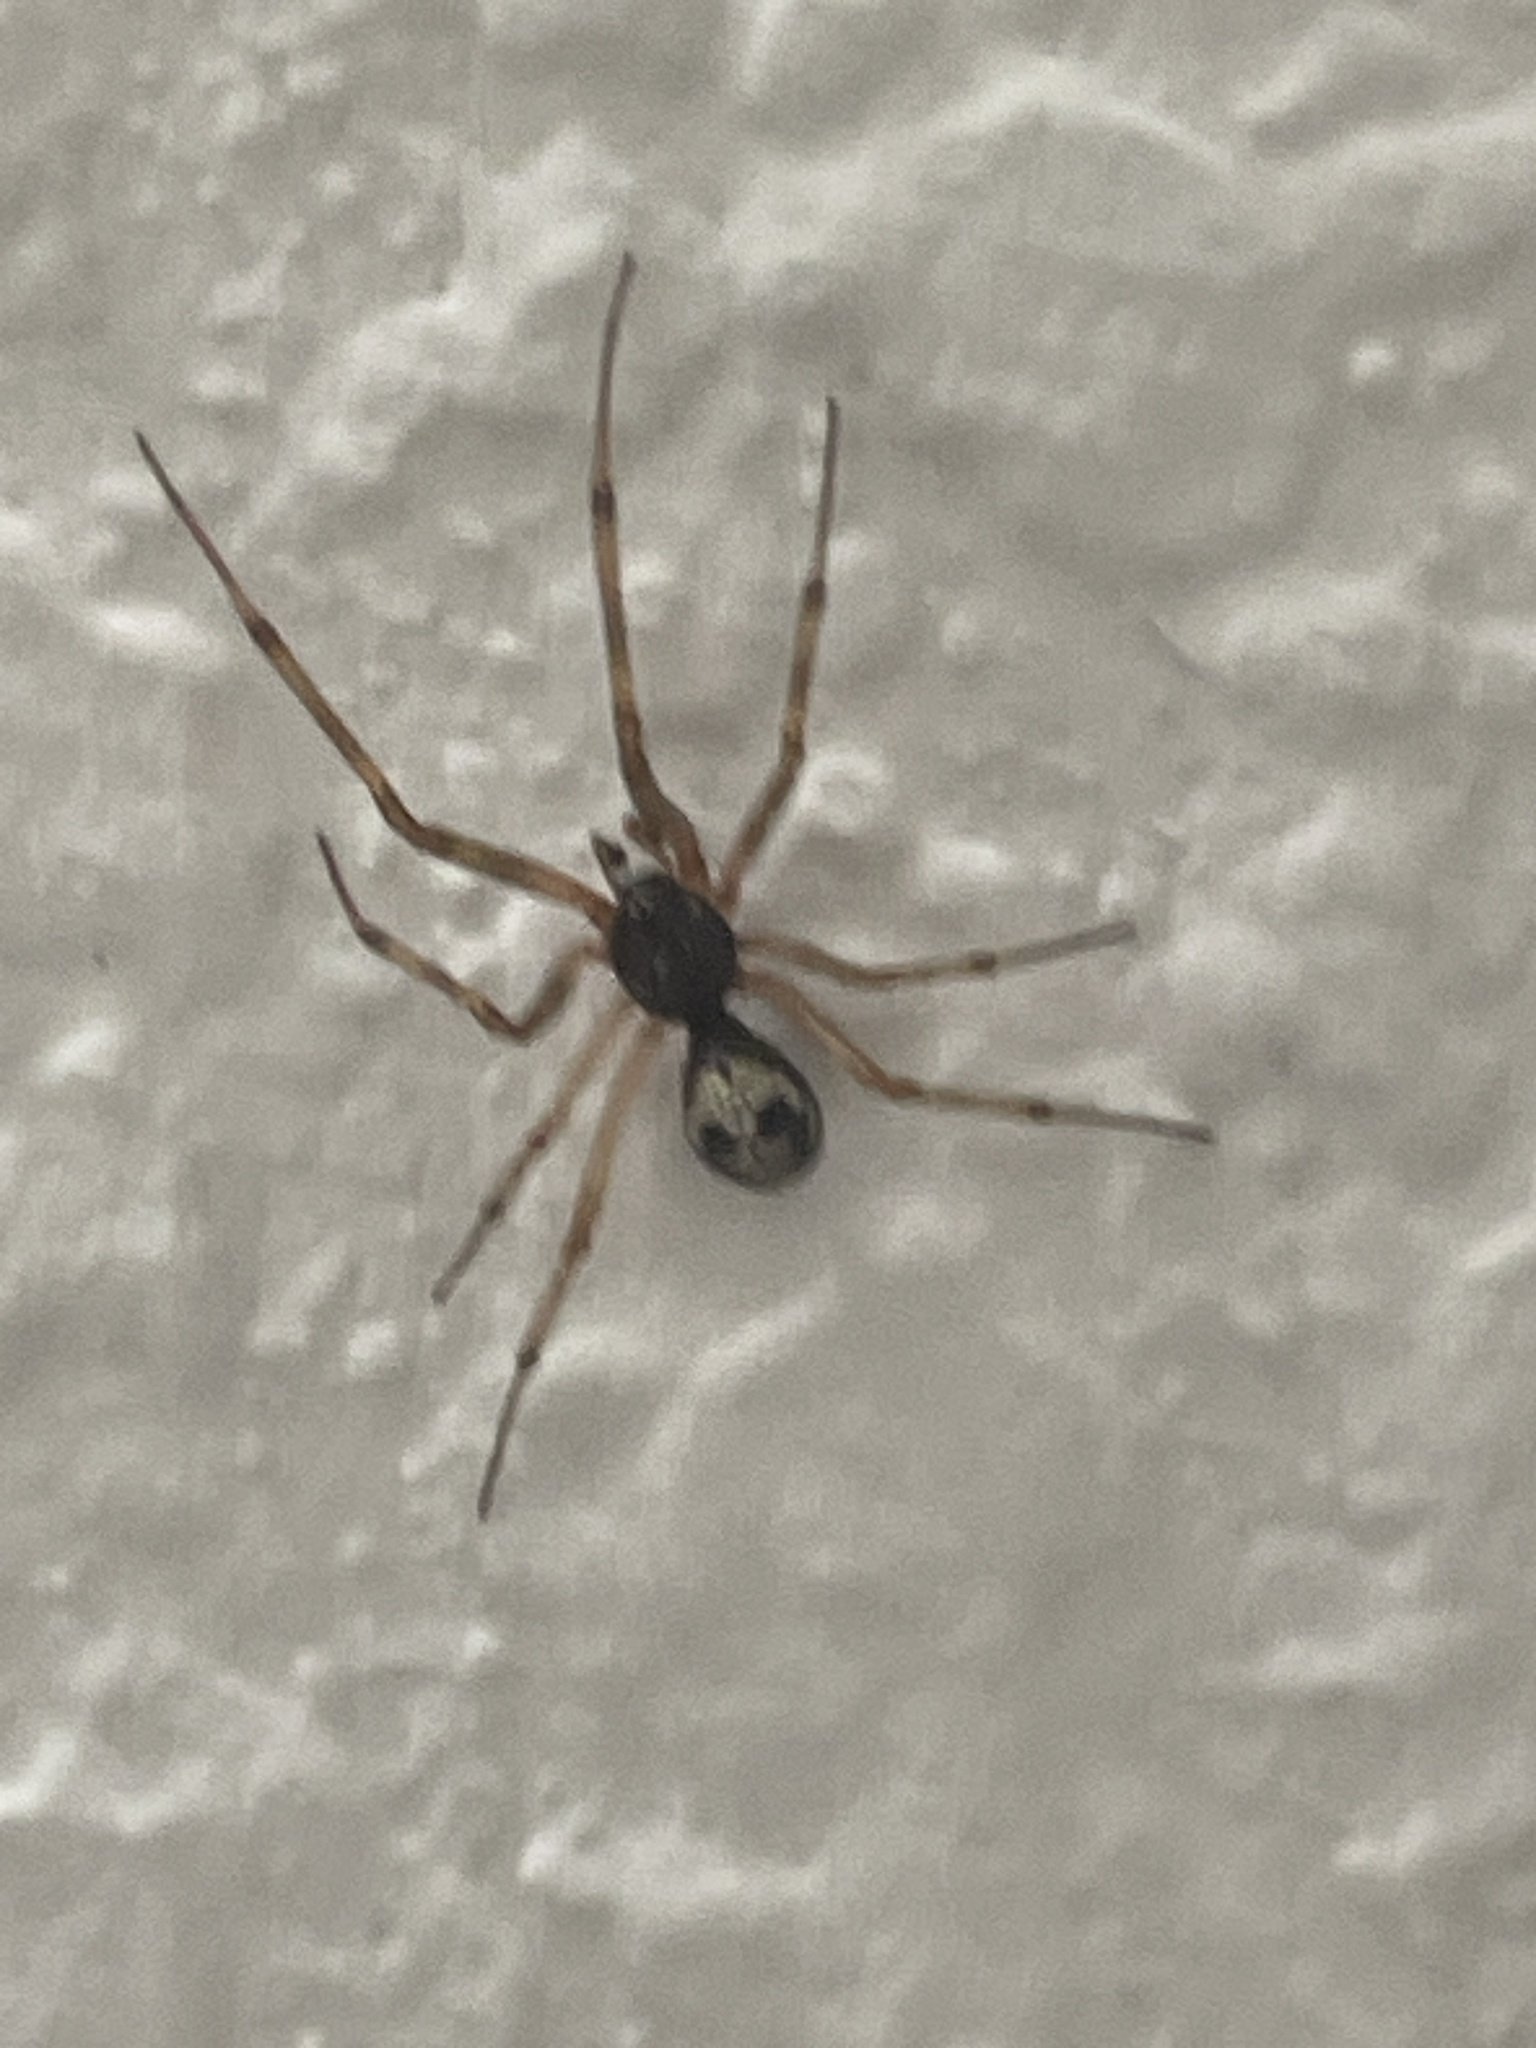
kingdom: Animalia
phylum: Arthropoda
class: Arachnida
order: Araneae
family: Theridiidae
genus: Steatoda
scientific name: Steatoda triangulosa
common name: Triangulate bud spider
